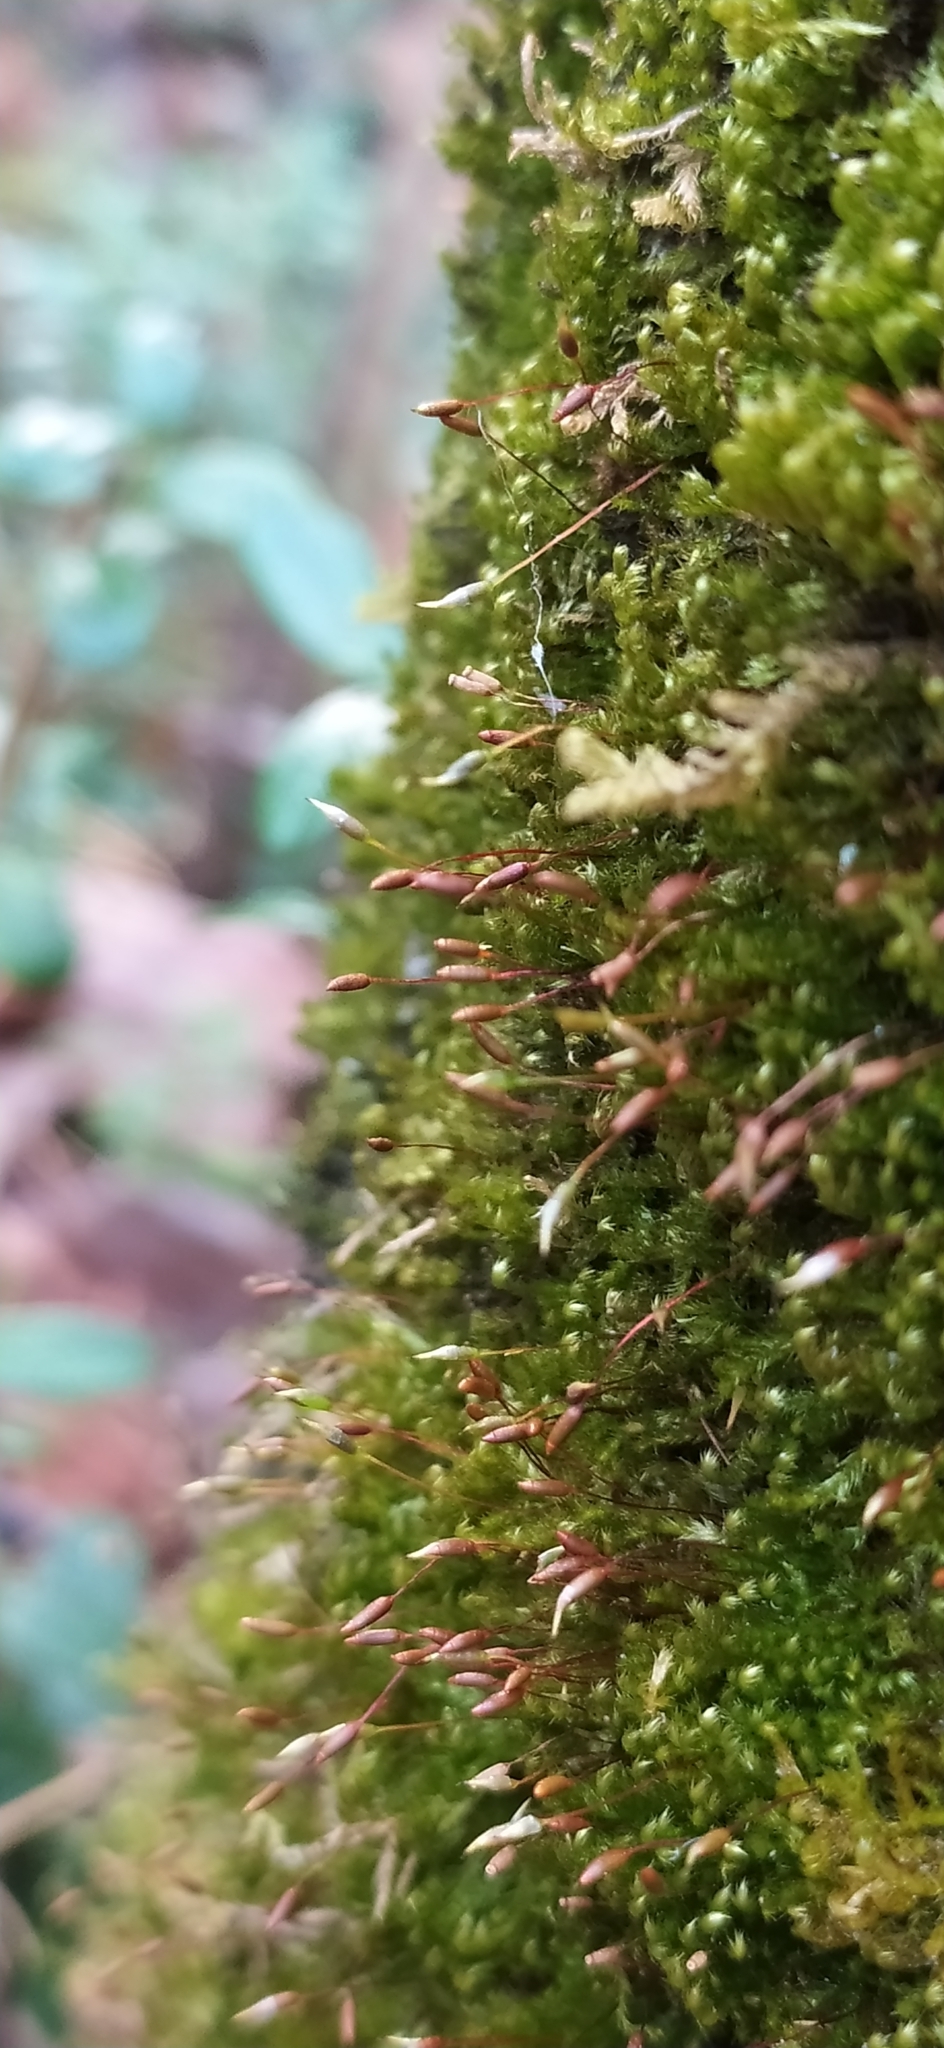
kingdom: Plantae
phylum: Bryophyta
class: Bryopsida
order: Hypnales
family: Pylaisiaceae
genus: Pylaisia
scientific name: Pylaisia polyantha
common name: Many-flowered leskea
